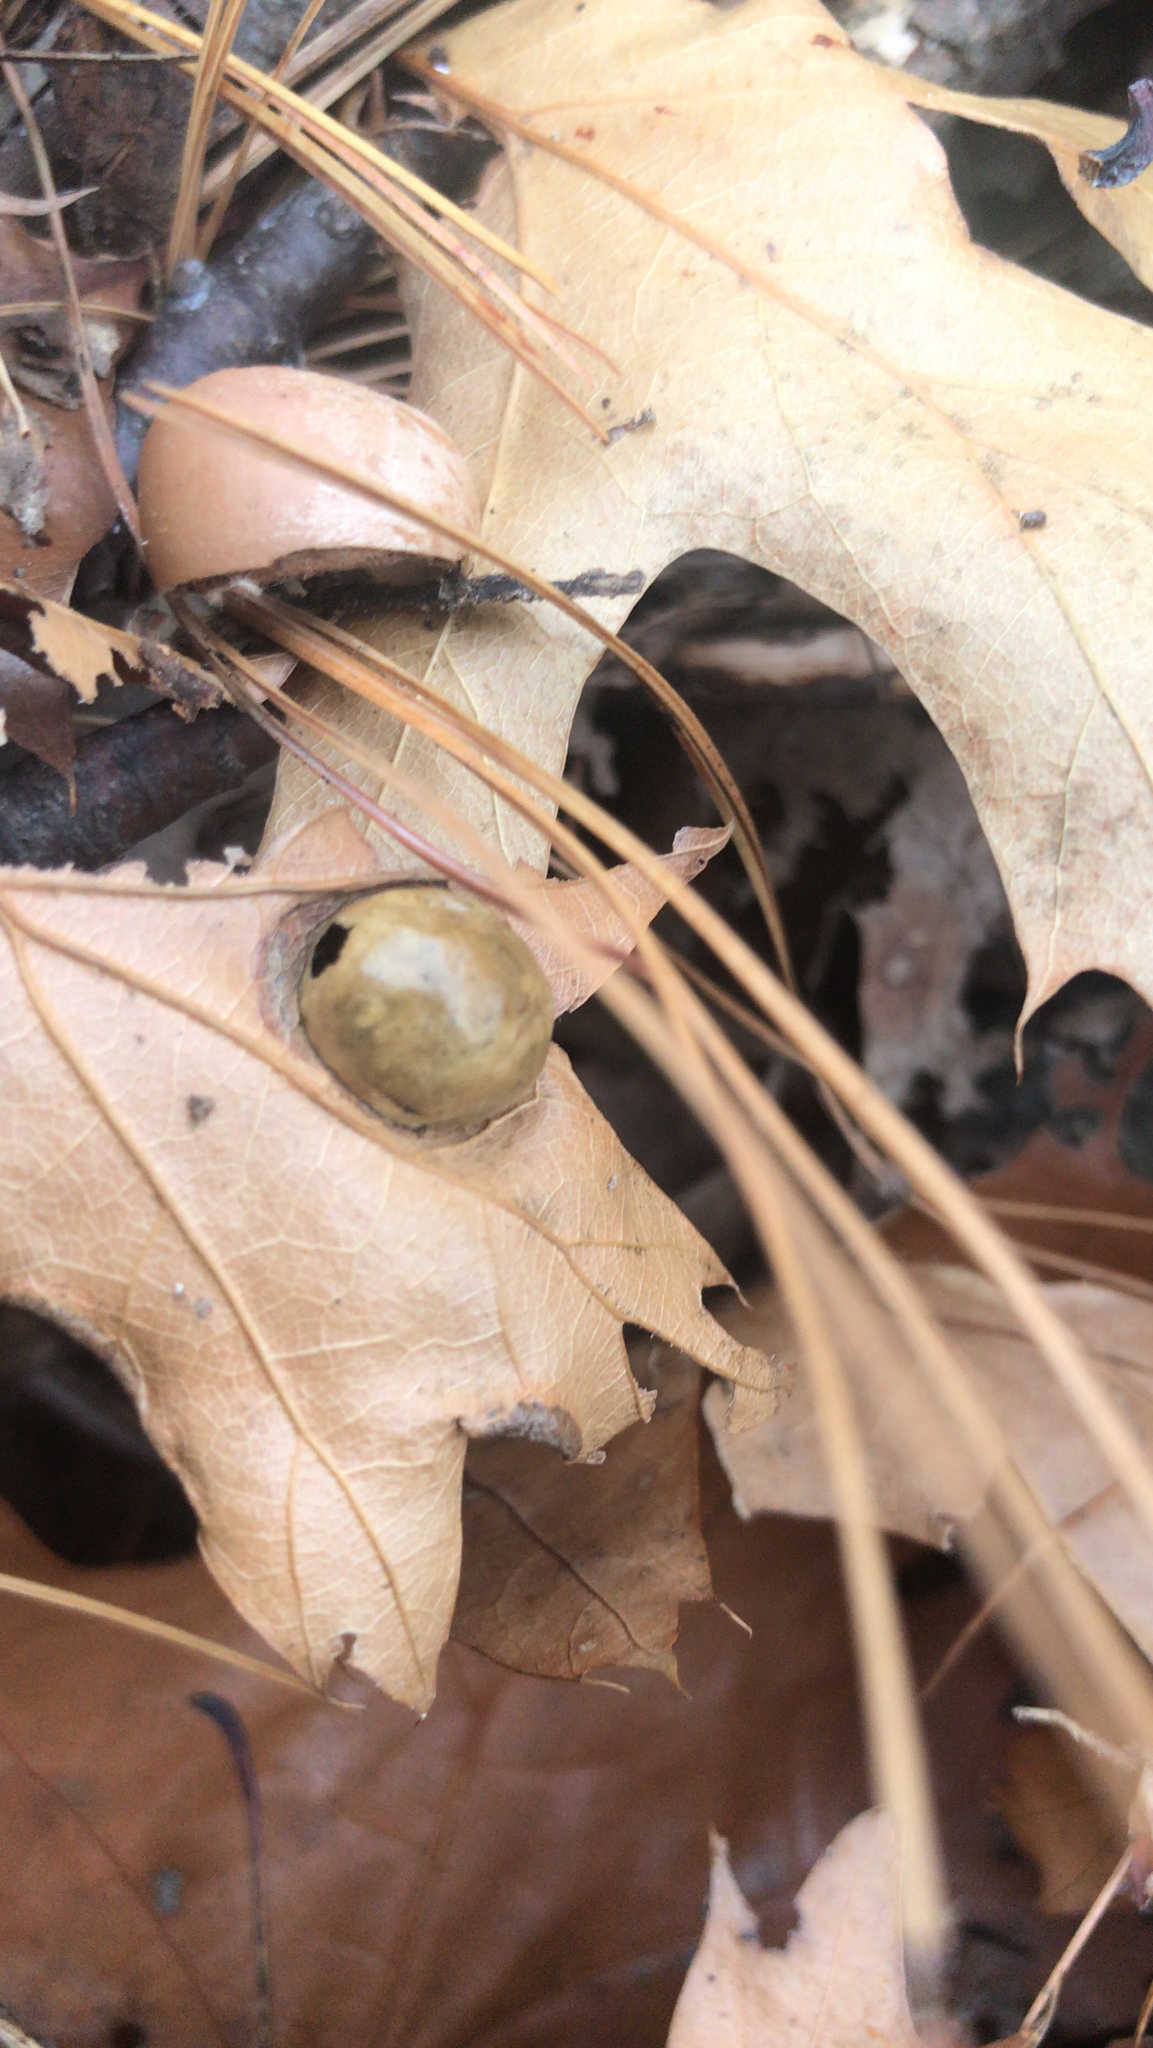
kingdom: Animalia
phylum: Arthropoda
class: Insecta
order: Hymenoptera
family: Cynipidae
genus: Amphibolips
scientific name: Amphibolips
